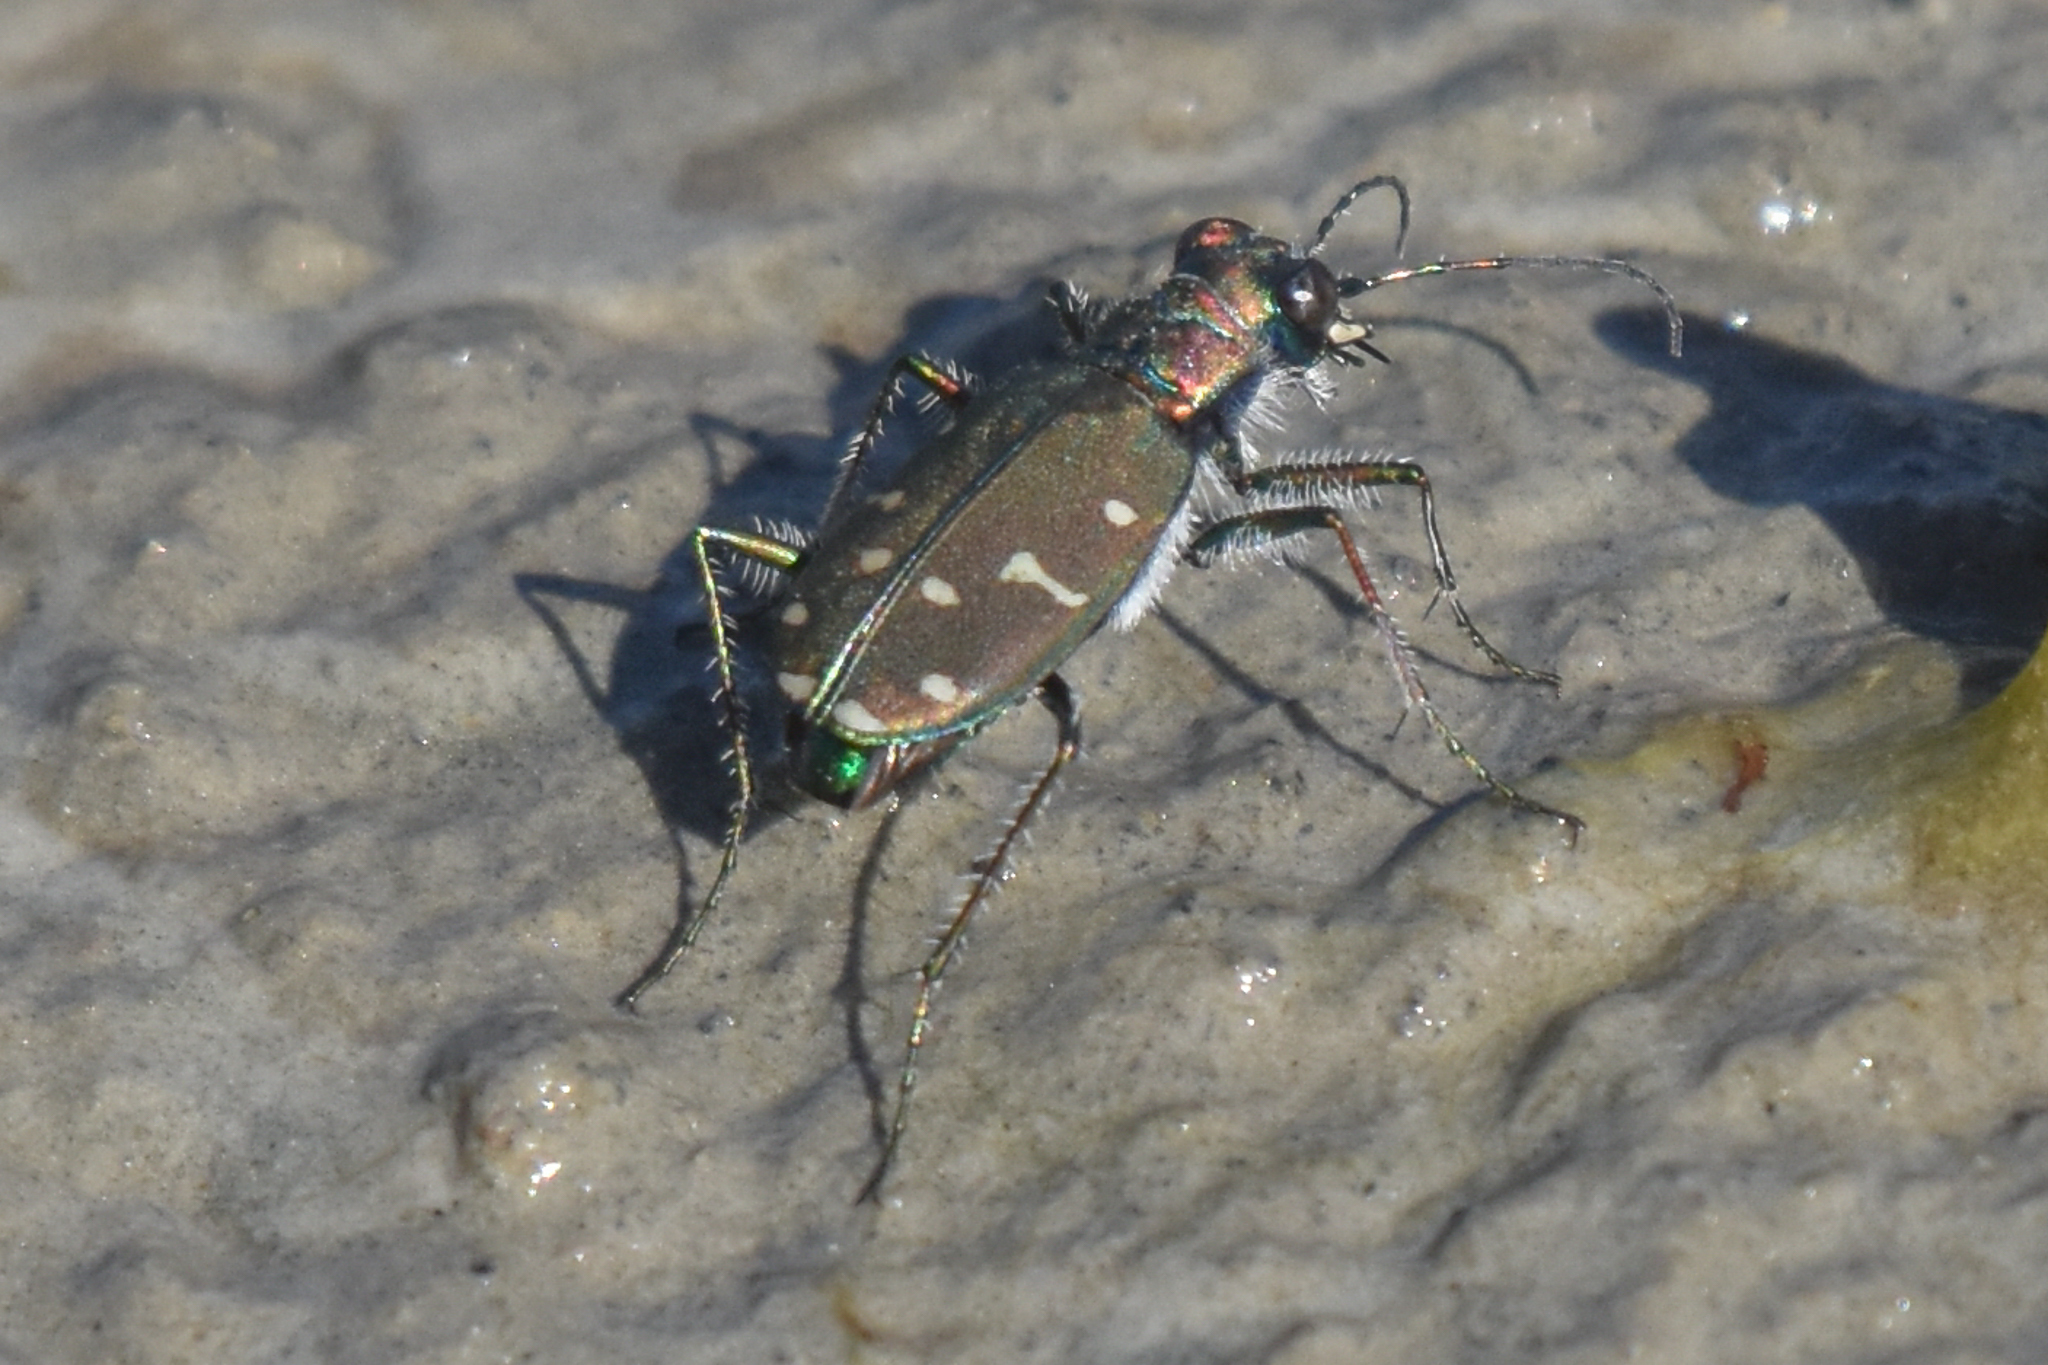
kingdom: Animalia
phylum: Arthropoda
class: Insecta
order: Coleoptera
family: Carabidae
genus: Cicindela
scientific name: Cicindela oregona
